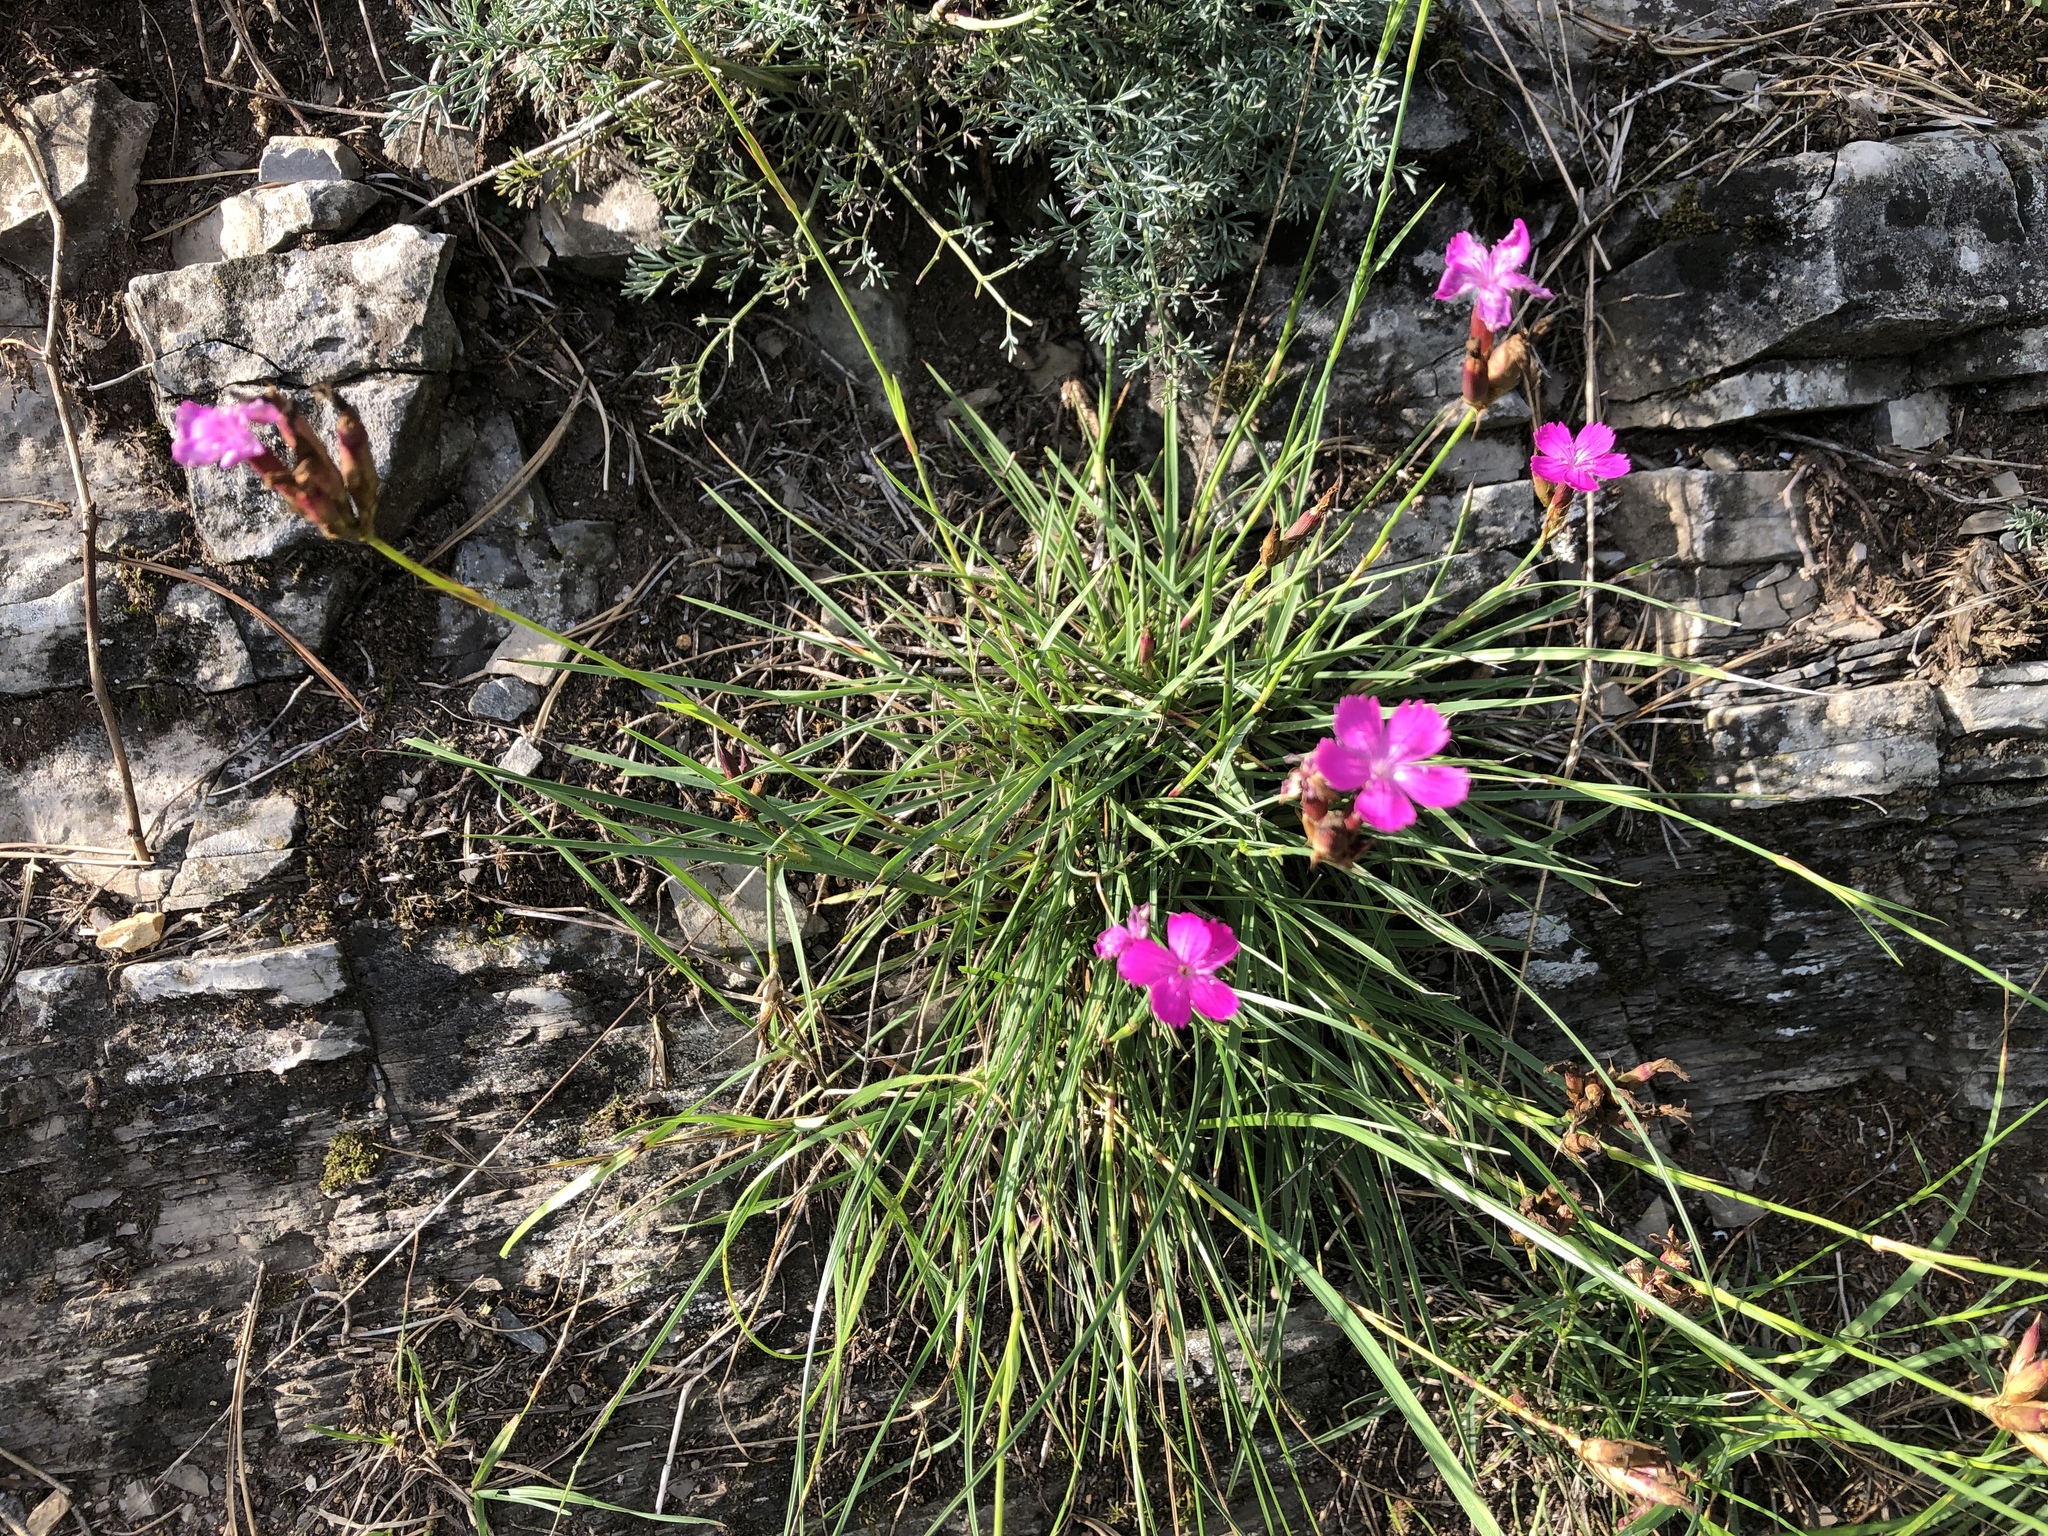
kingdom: Plantae
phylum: Tracheophyta
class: Magnoliopsida
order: Caryophyllales
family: Caryophyllaceae
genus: Dianthus
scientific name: Dianthus carthusianorum
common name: Carthusian pink
